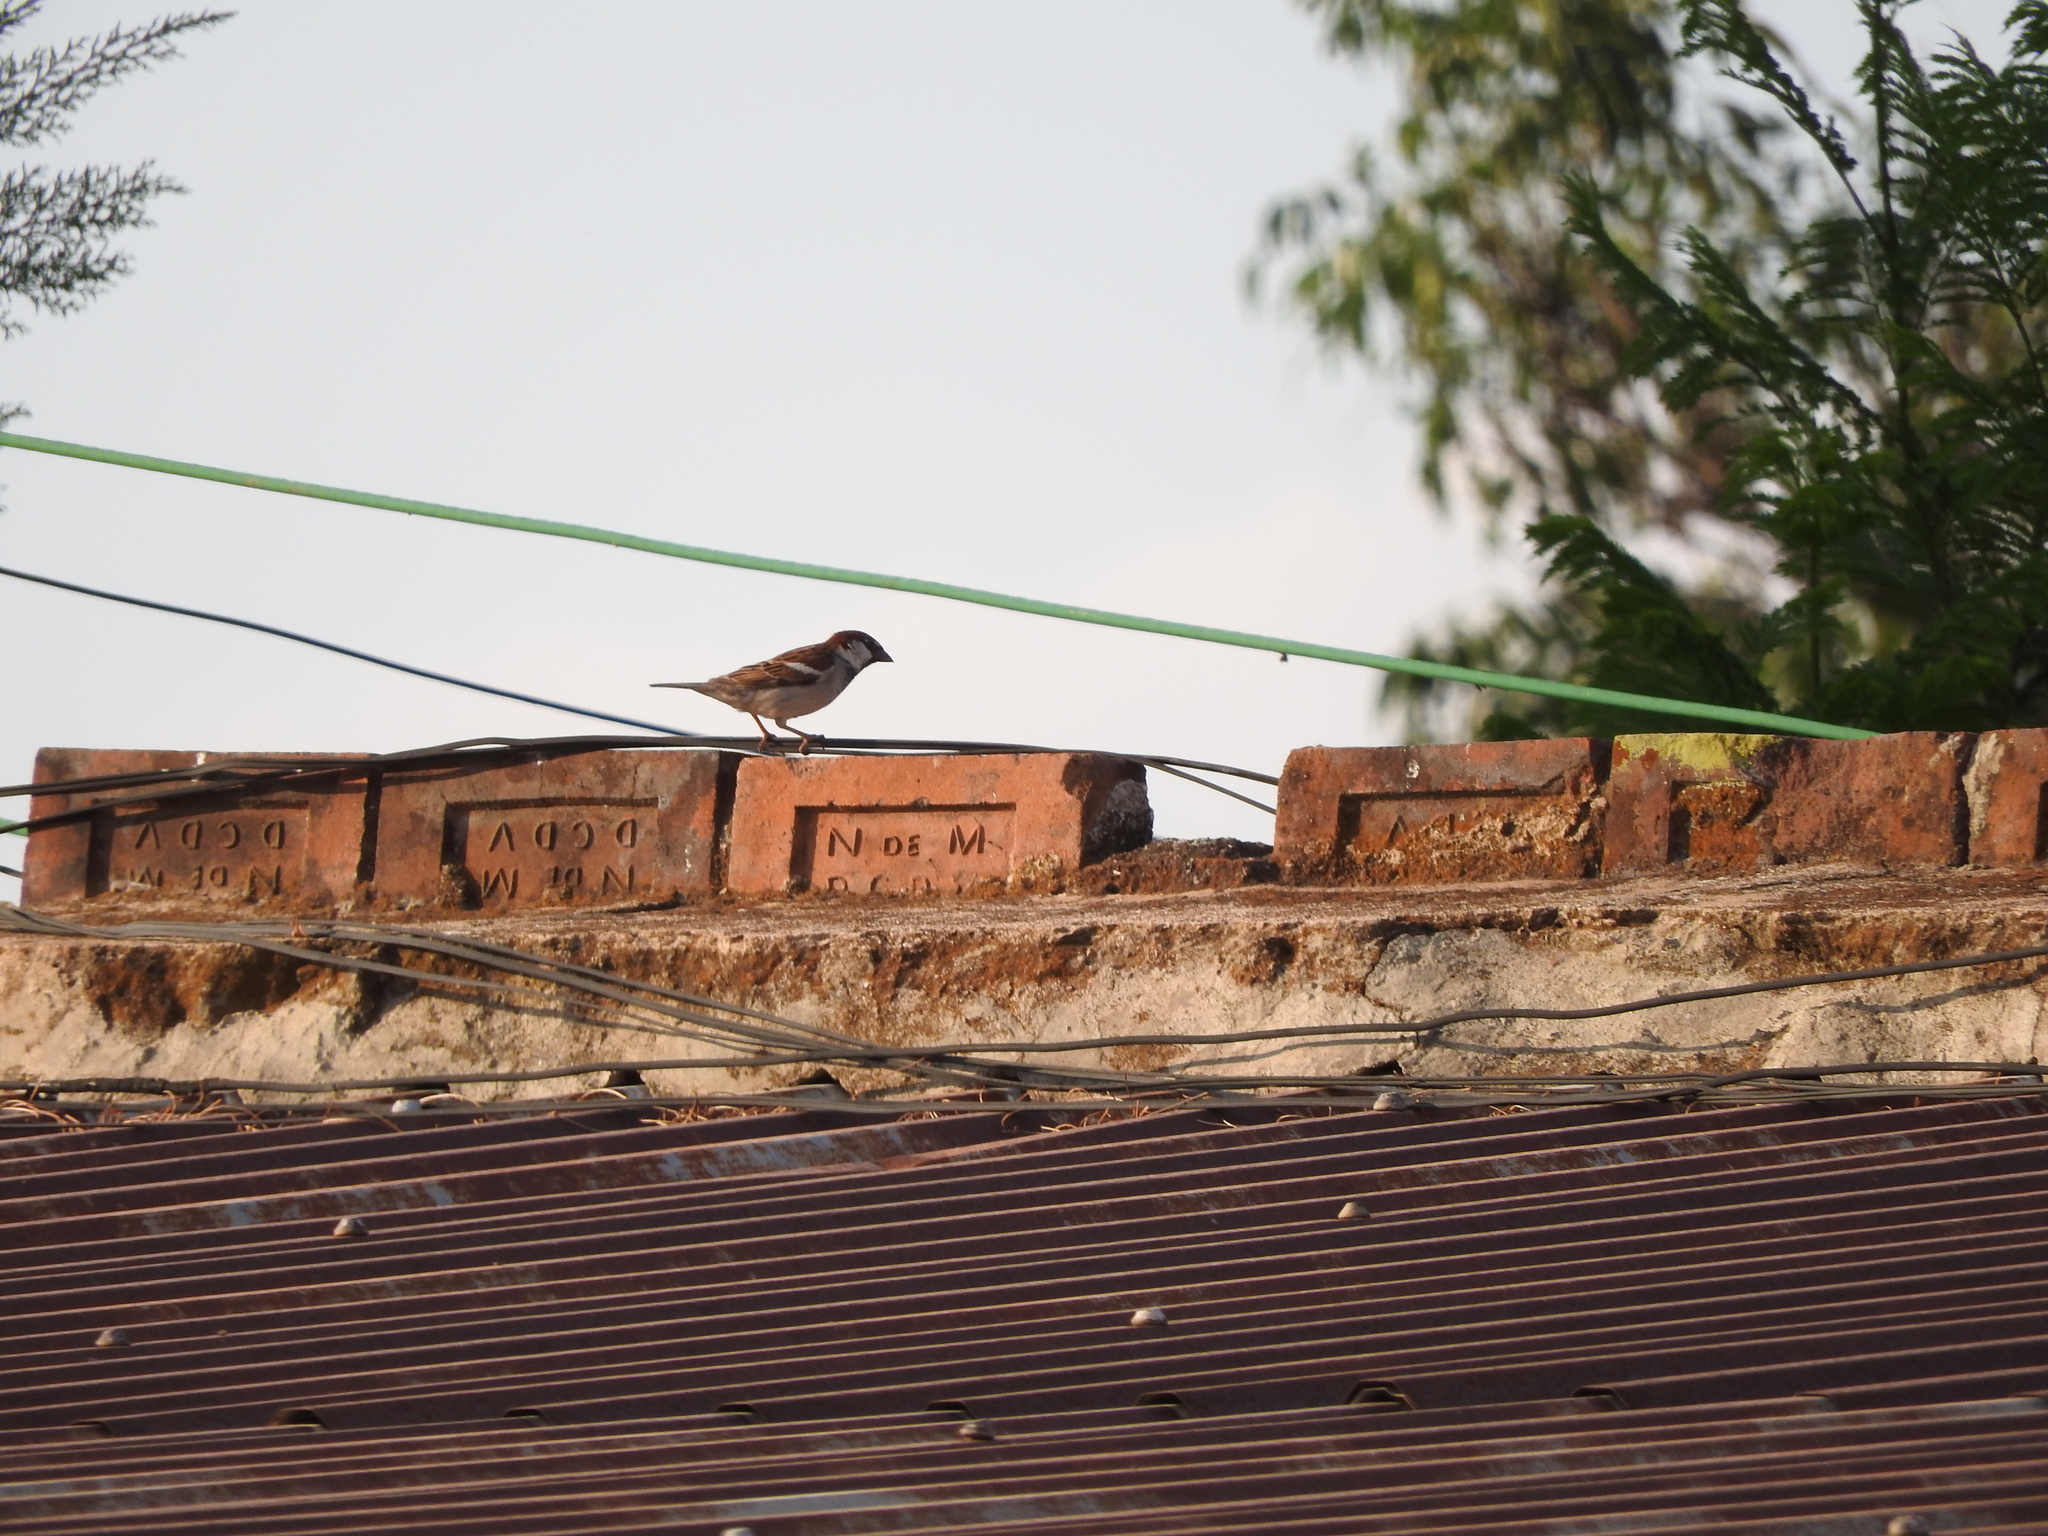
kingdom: Animalia
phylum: Chordata
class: Aves
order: Passeriformes
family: Passeridae
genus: Passer
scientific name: Passer domesticus
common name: House sparrow
